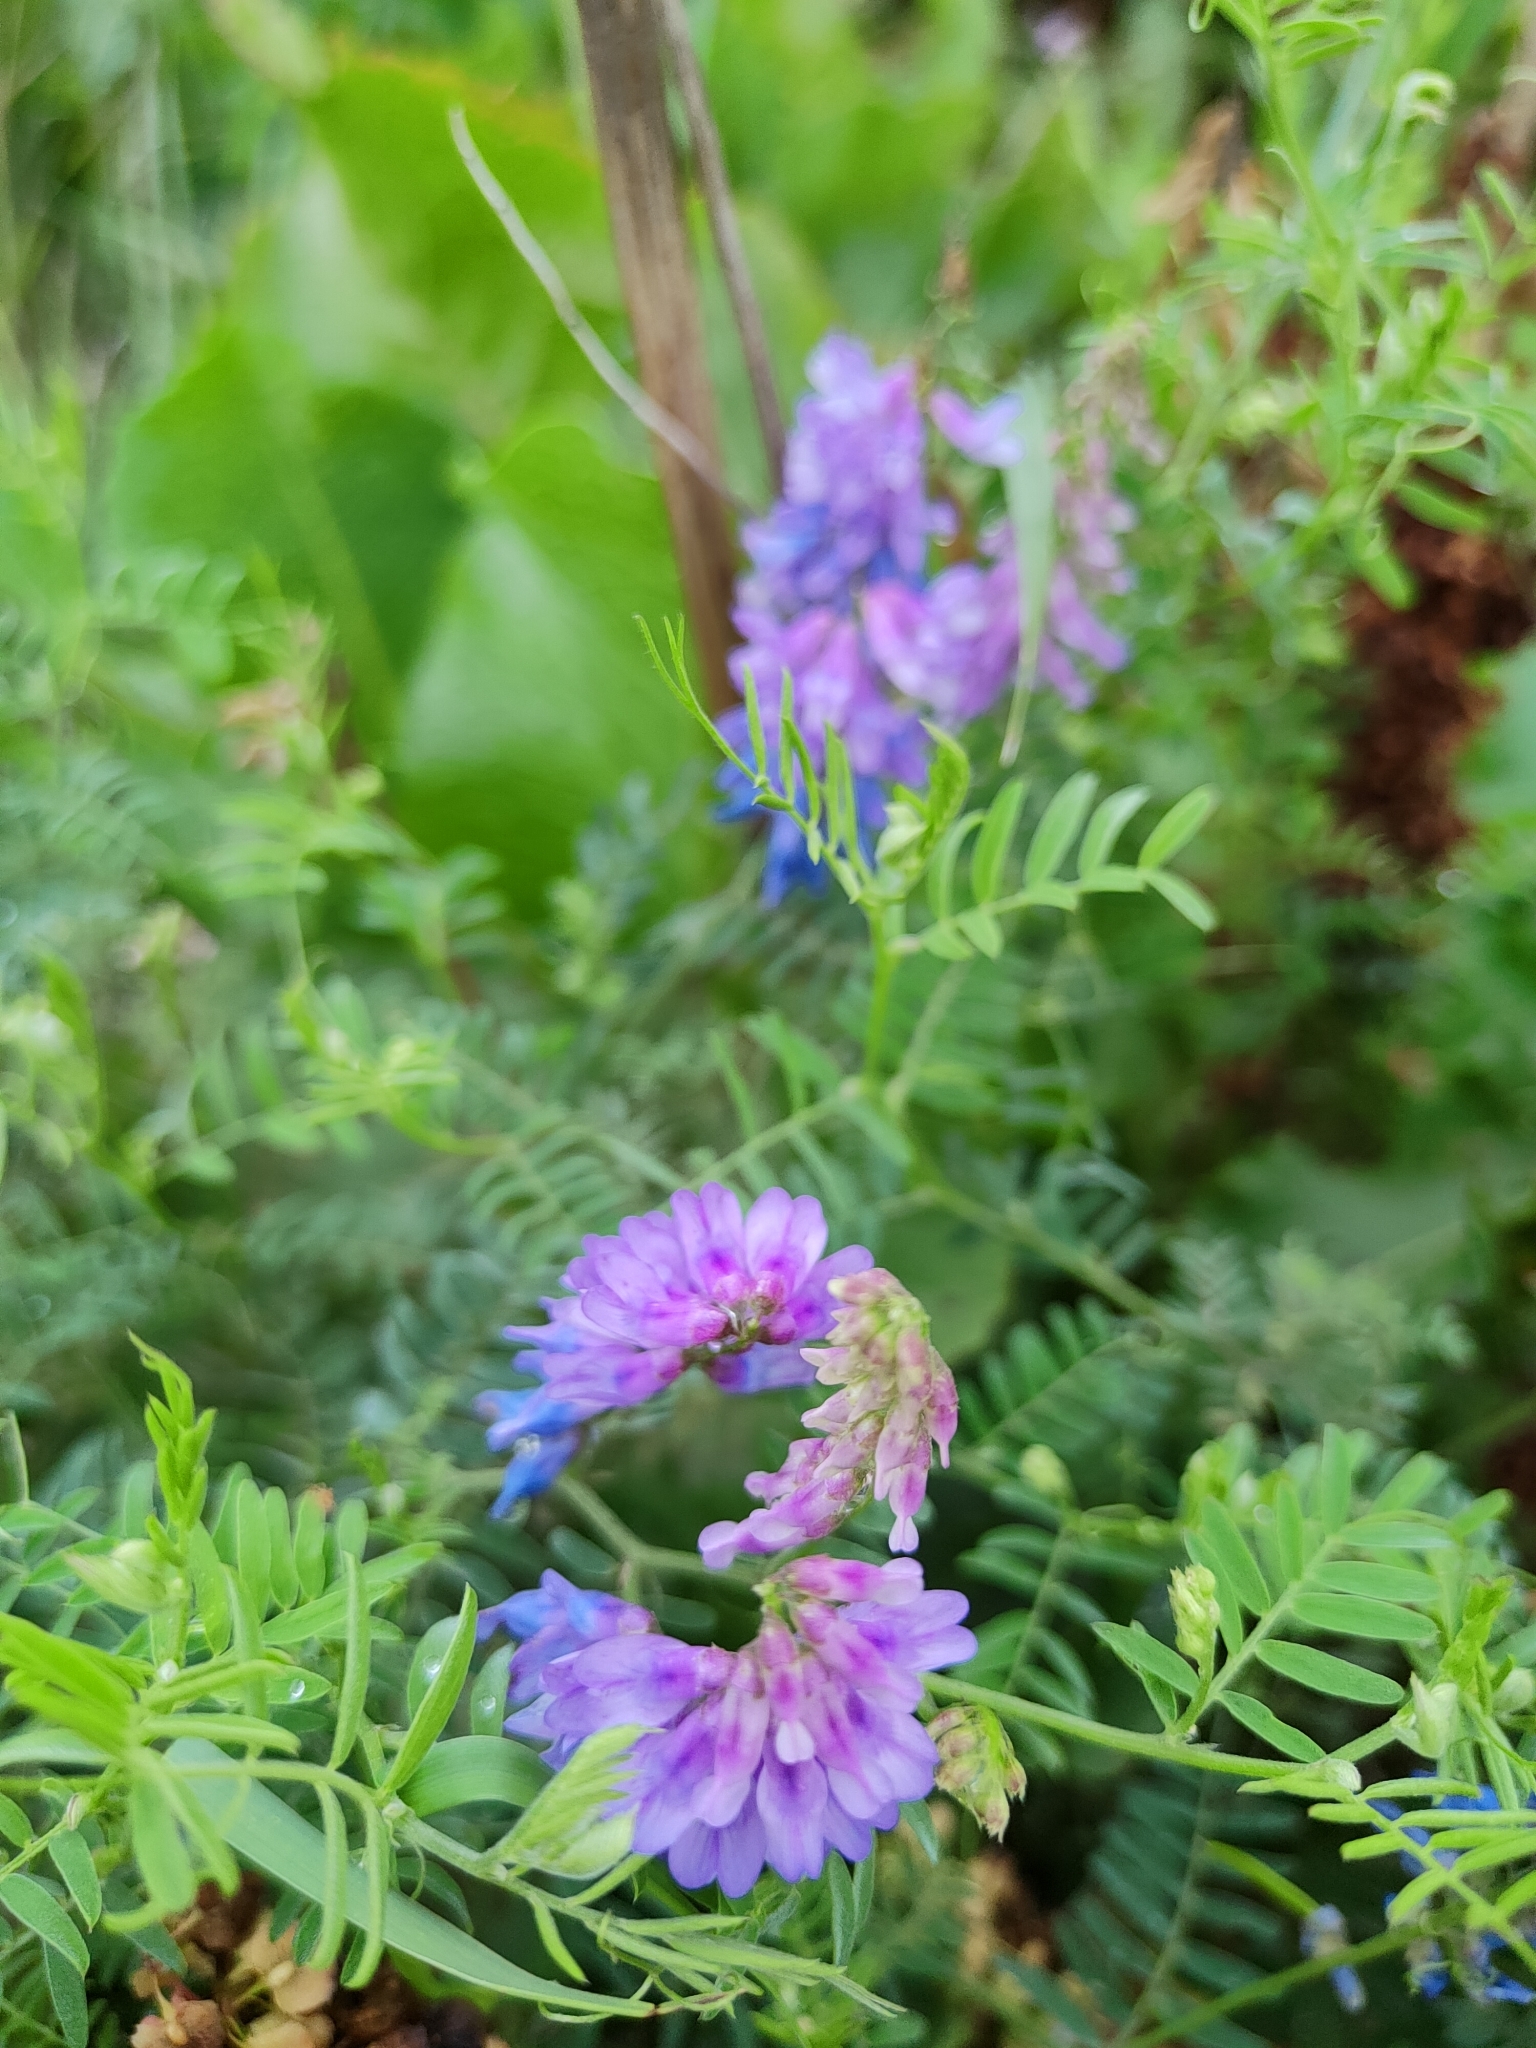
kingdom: Plantae
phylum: Tracheophyta
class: Magnoliopsida
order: Fabales
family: Fabaceae
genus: Vicia
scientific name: Vicia cracca
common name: Bird vetch
